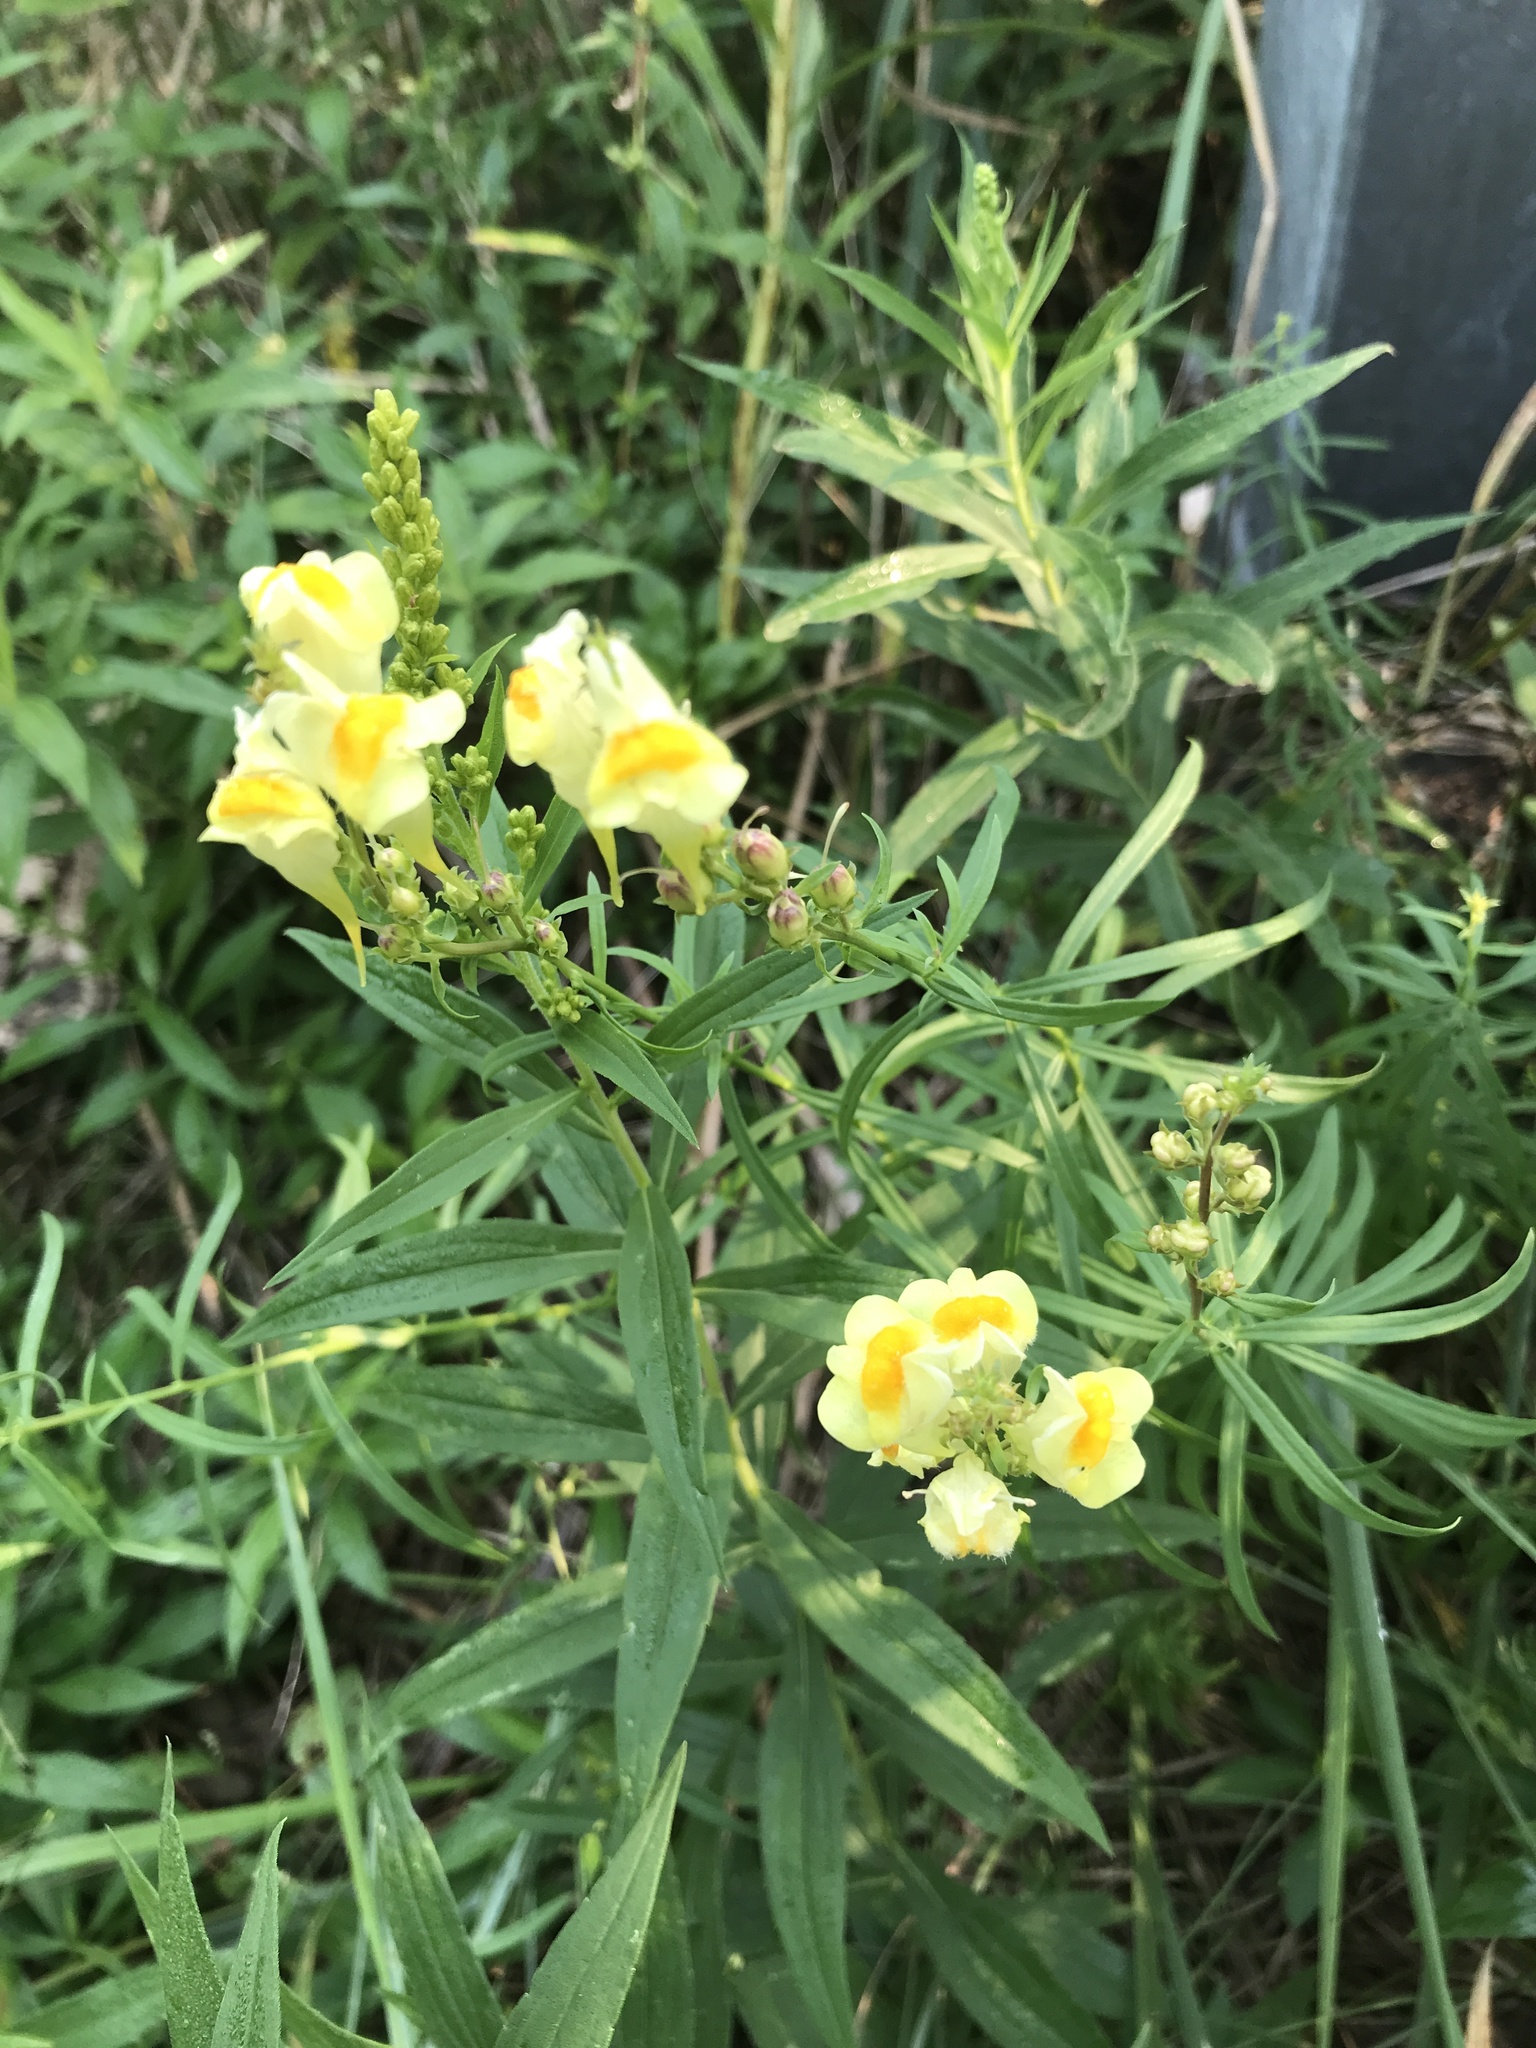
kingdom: Plantae
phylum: Tracheophyta
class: Magnoliopsida
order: Lamiales
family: Plantaginaceae
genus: Linaria
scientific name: Linaria vulgaris
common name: Butter and eggs
